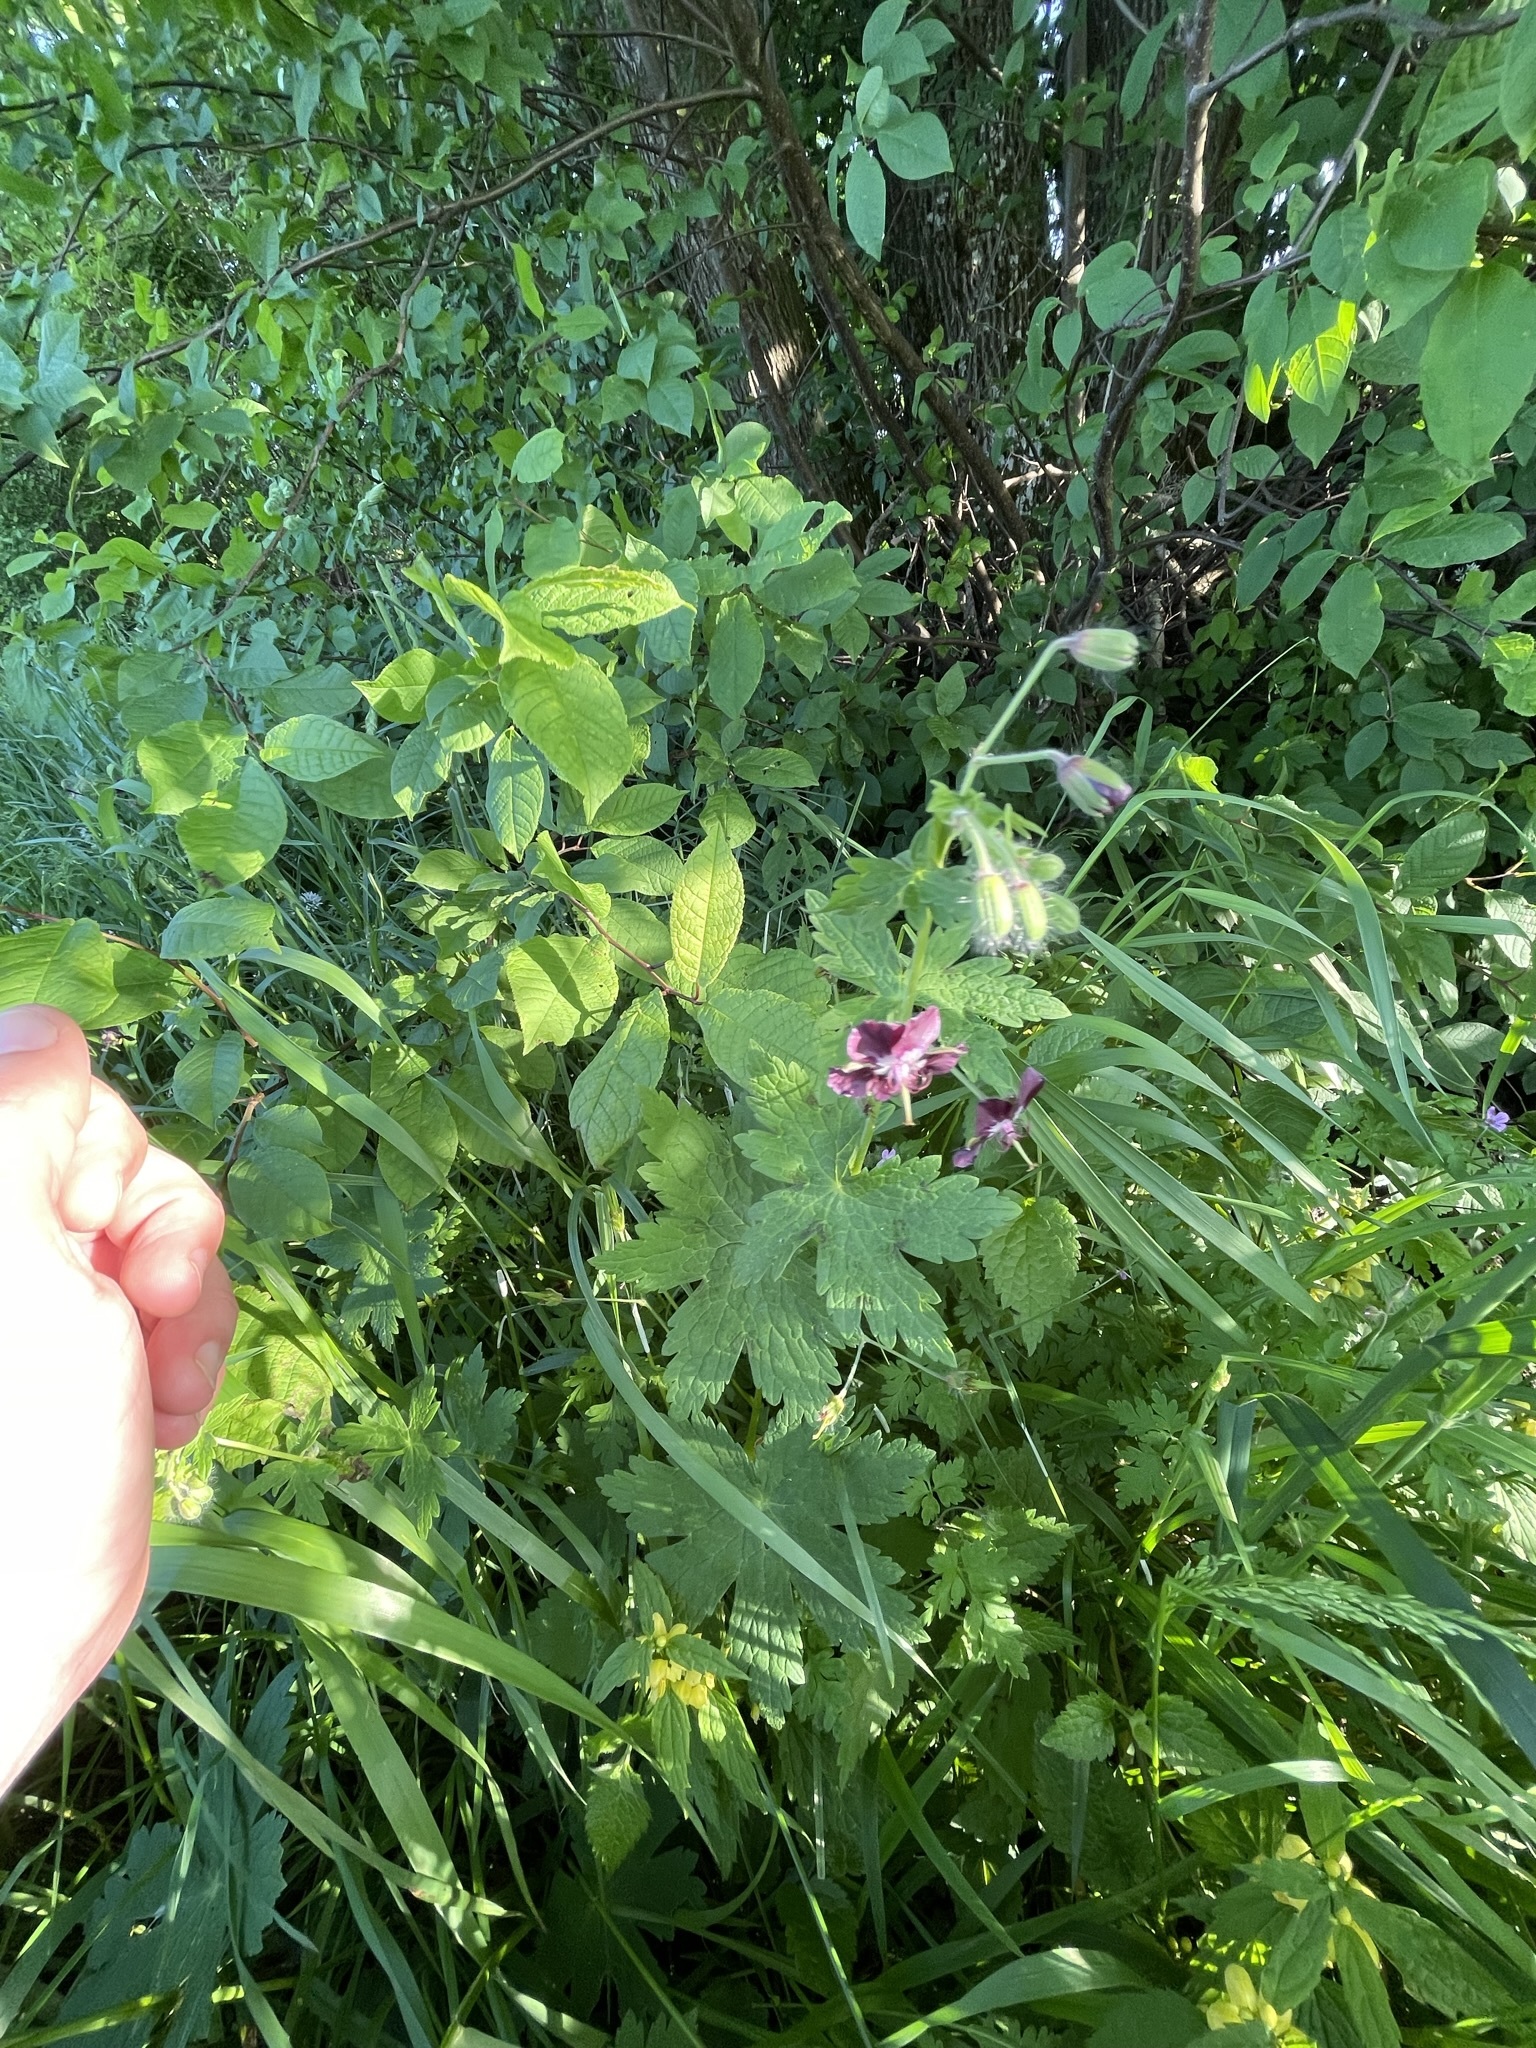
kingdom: Plantae
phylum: Tracheophyta
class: Magnoliopsida
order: Geraniales
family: Geraniaceae
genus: Geranium
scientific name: Geranium phaeum
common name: Dusky crane's-bill
